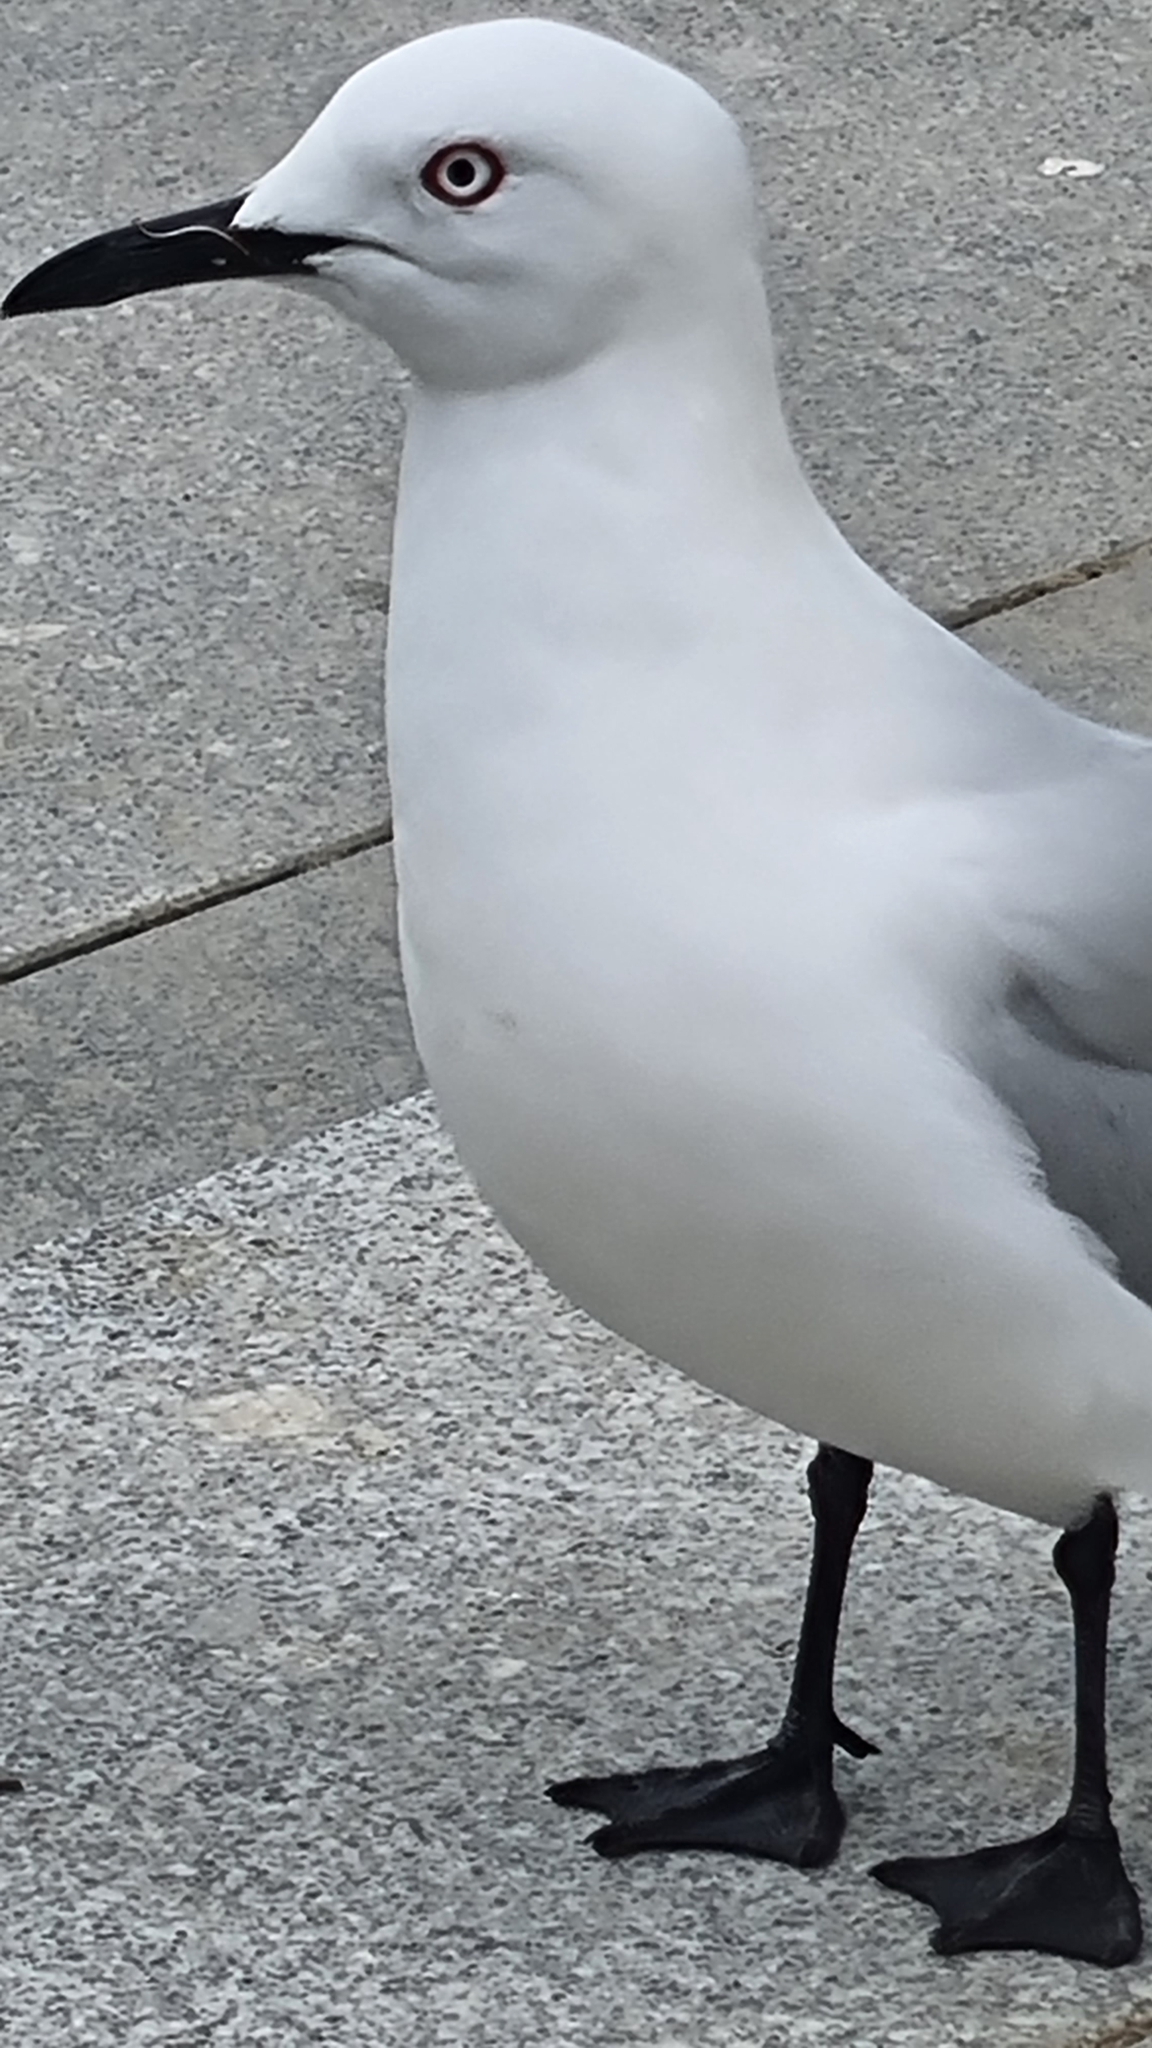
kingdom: Animalia
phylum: Chordata
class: Aves
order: Charadriiformes
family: Laridae
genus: Chroicocephalus
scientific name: Chroicocephalus bulleri
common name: Black-billed gull
